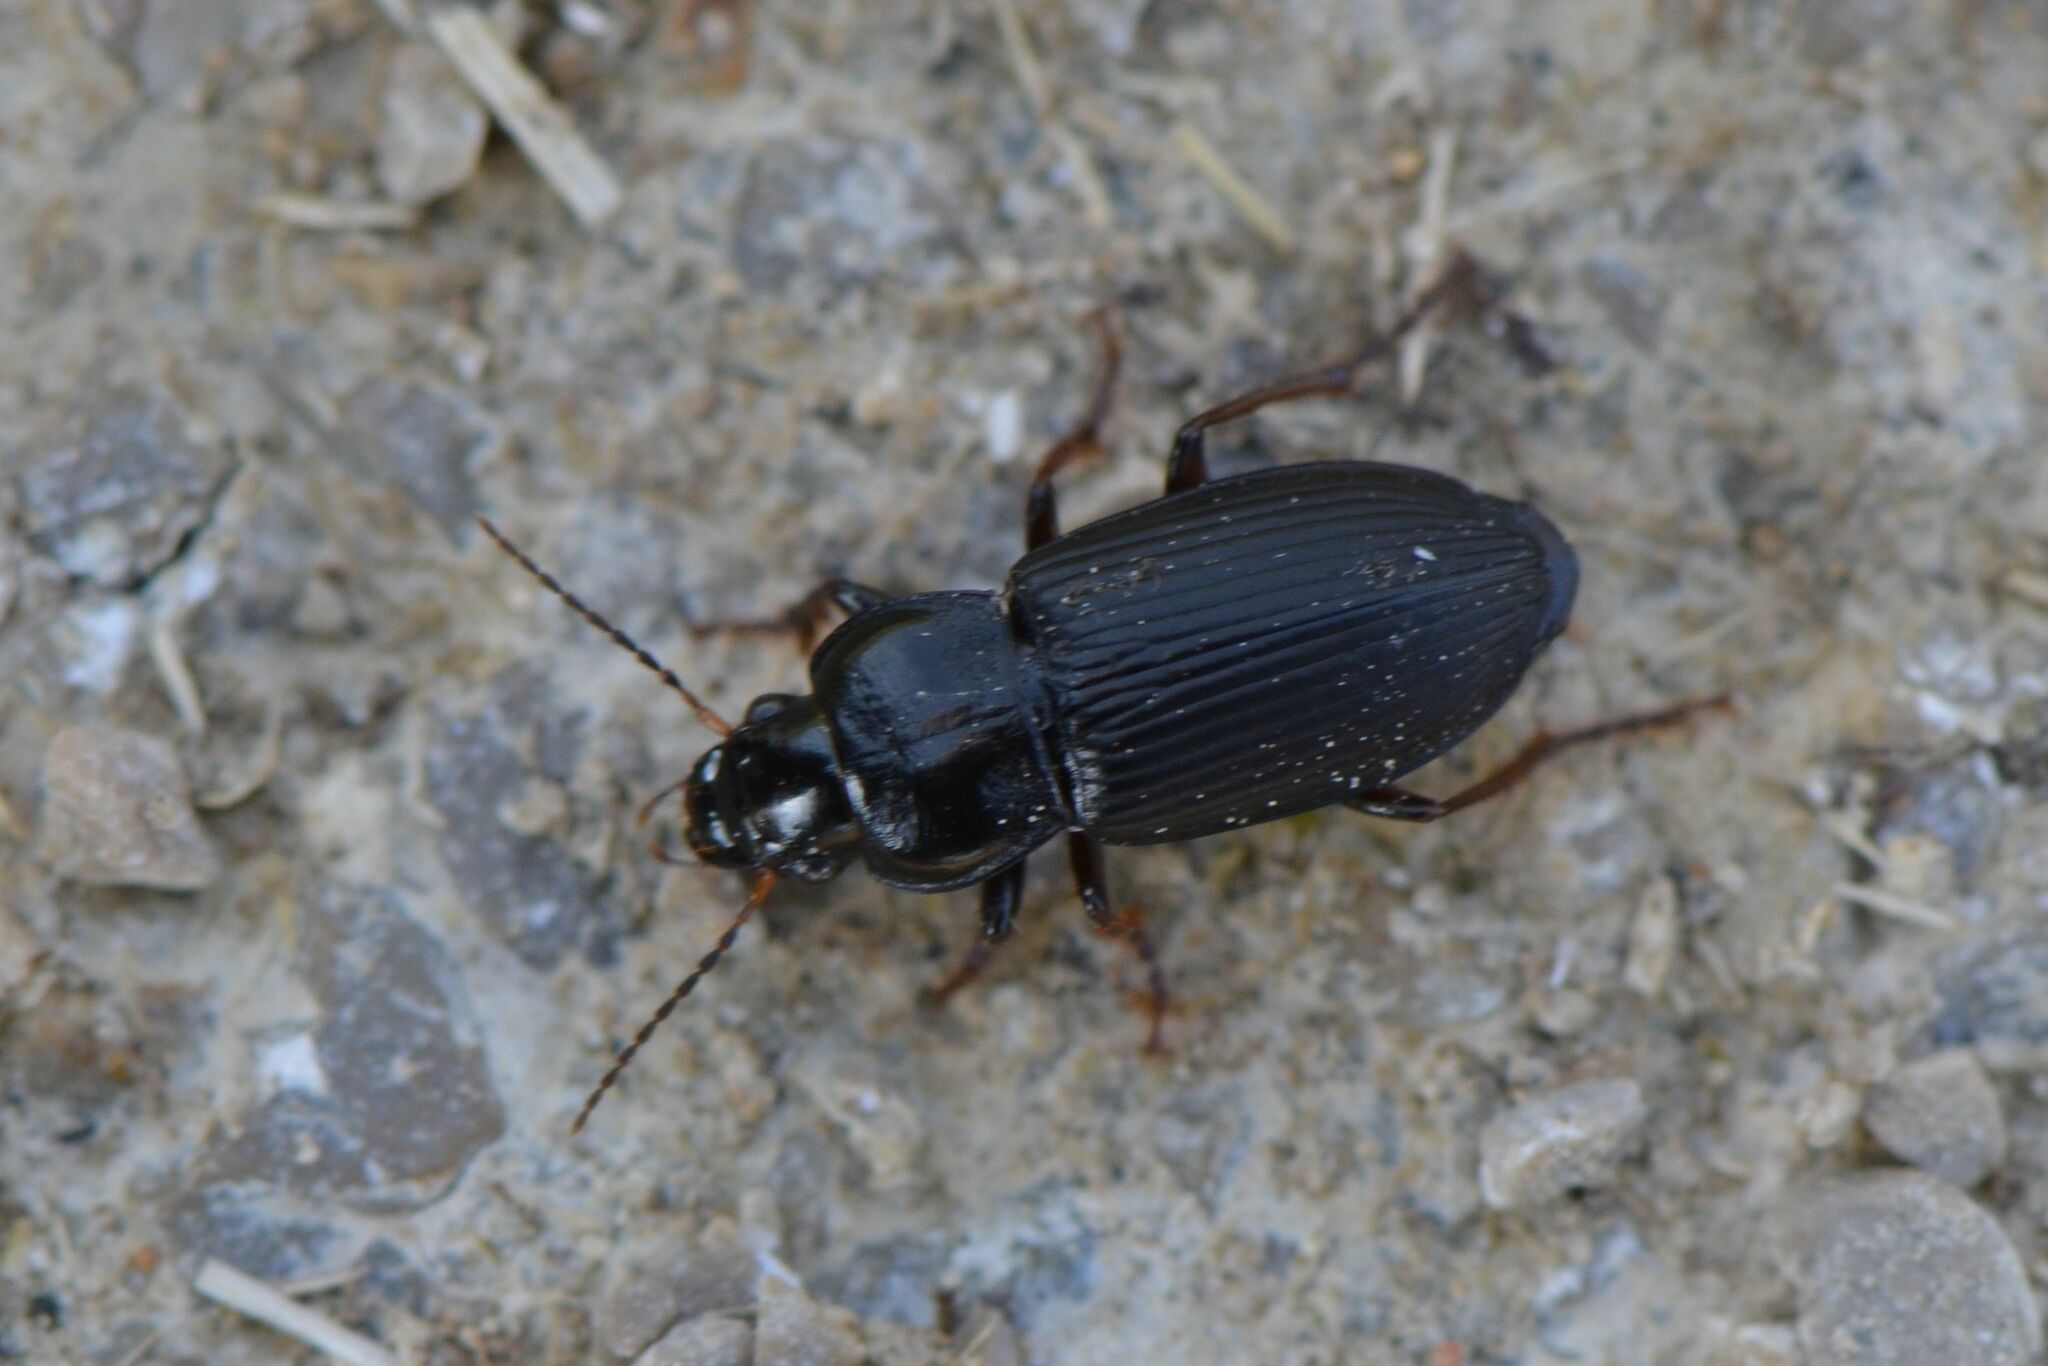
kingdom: Animalia
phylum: Arthropoda
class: Insecta
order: Coleoptera
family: Carabidae
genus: Anisodactylus
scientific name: Anisodactylus binotatus
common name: Two-marked harp ground beetle
